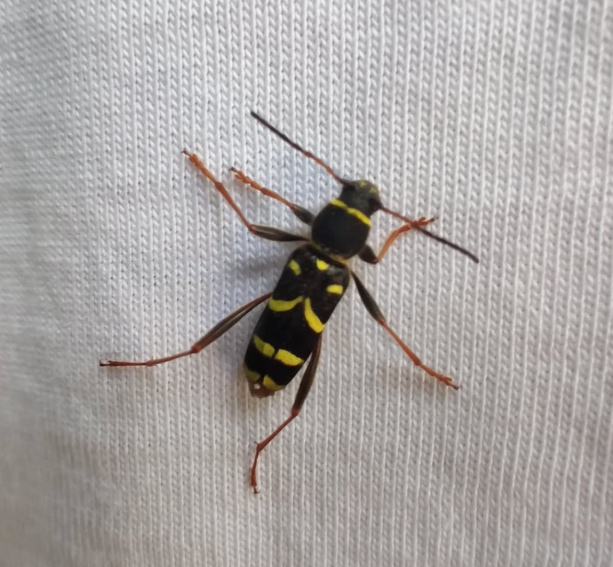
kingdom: Animalia
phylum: Arthropoda
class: Insecta
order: Coleoptera
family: Cerambycidae
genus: Clytus
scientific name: Clytus arietis
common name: Wasp beetle
